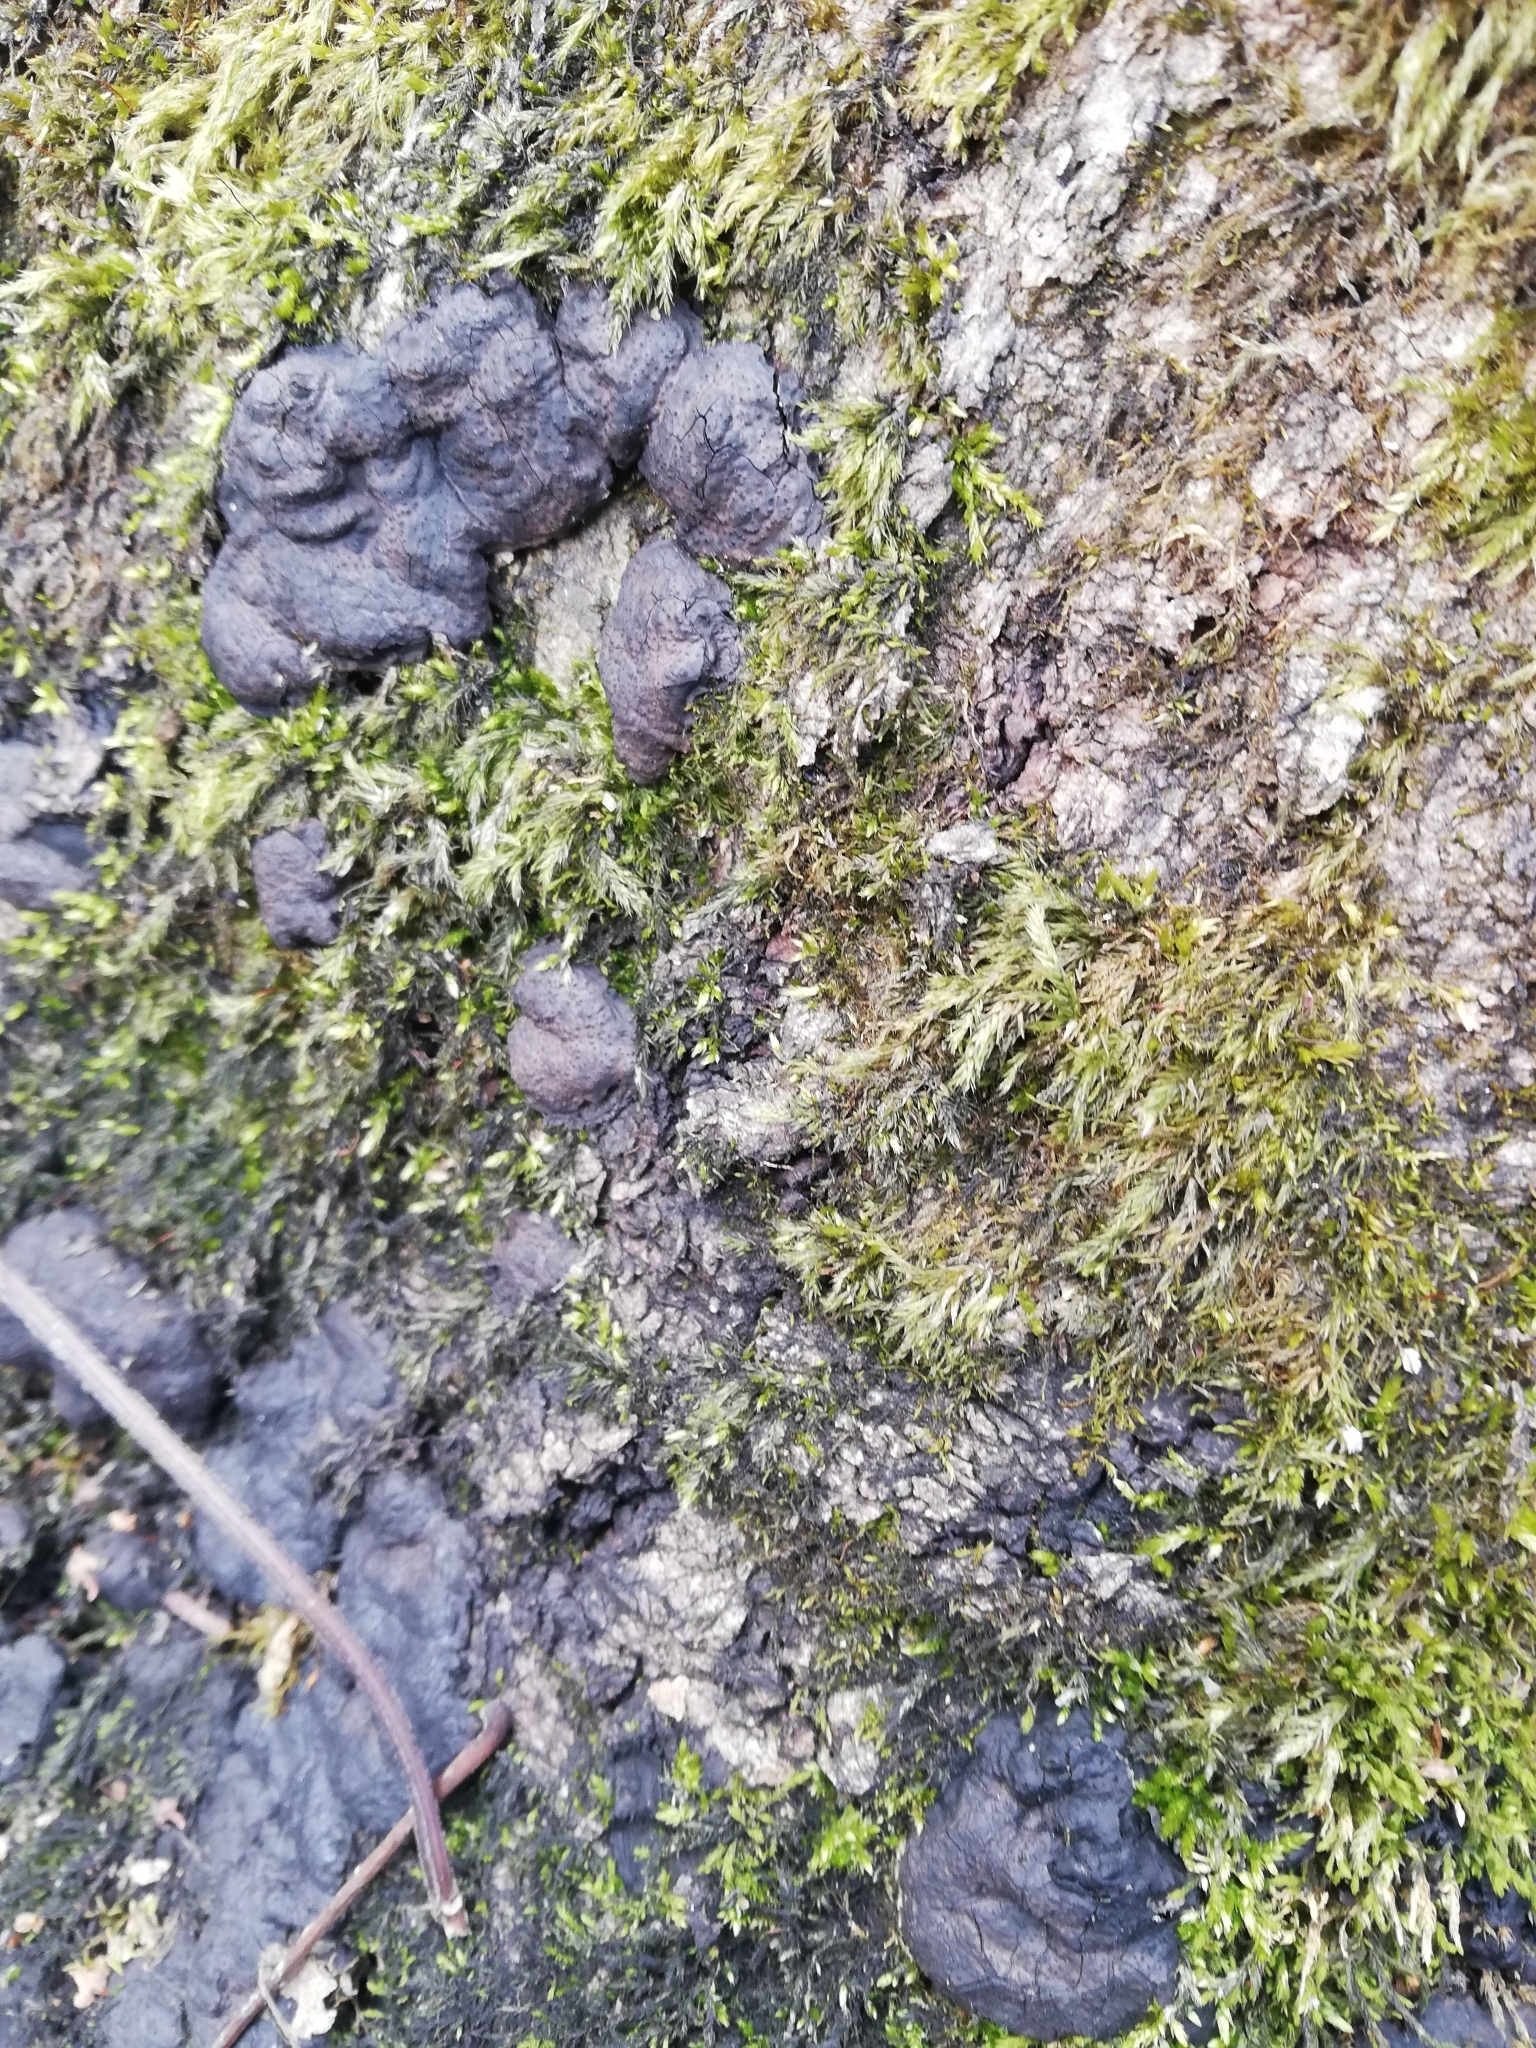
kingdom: Fungi
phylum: Ascomycota
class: Sordariomycetes
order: Xylariales
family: Xylariaceae
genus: Kretzschmaria
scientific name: Kretzschmaria deusta
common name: Brittle cinder
